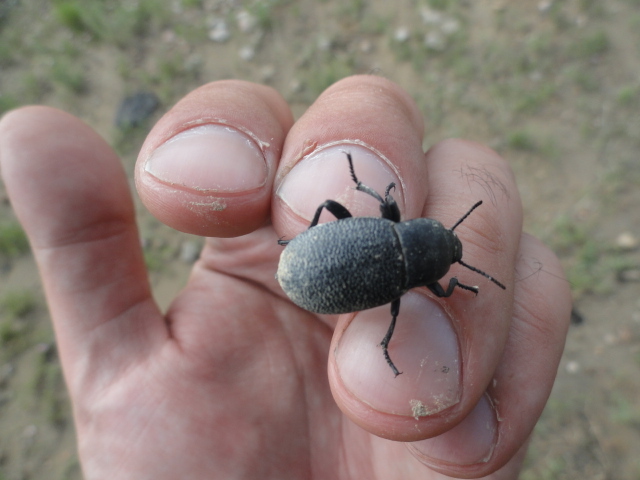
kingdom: Animalia
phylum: Arthropoda
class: Insecta
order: Coleoptera
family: Tenebrionidae
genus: Blaps
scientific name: Blaps
